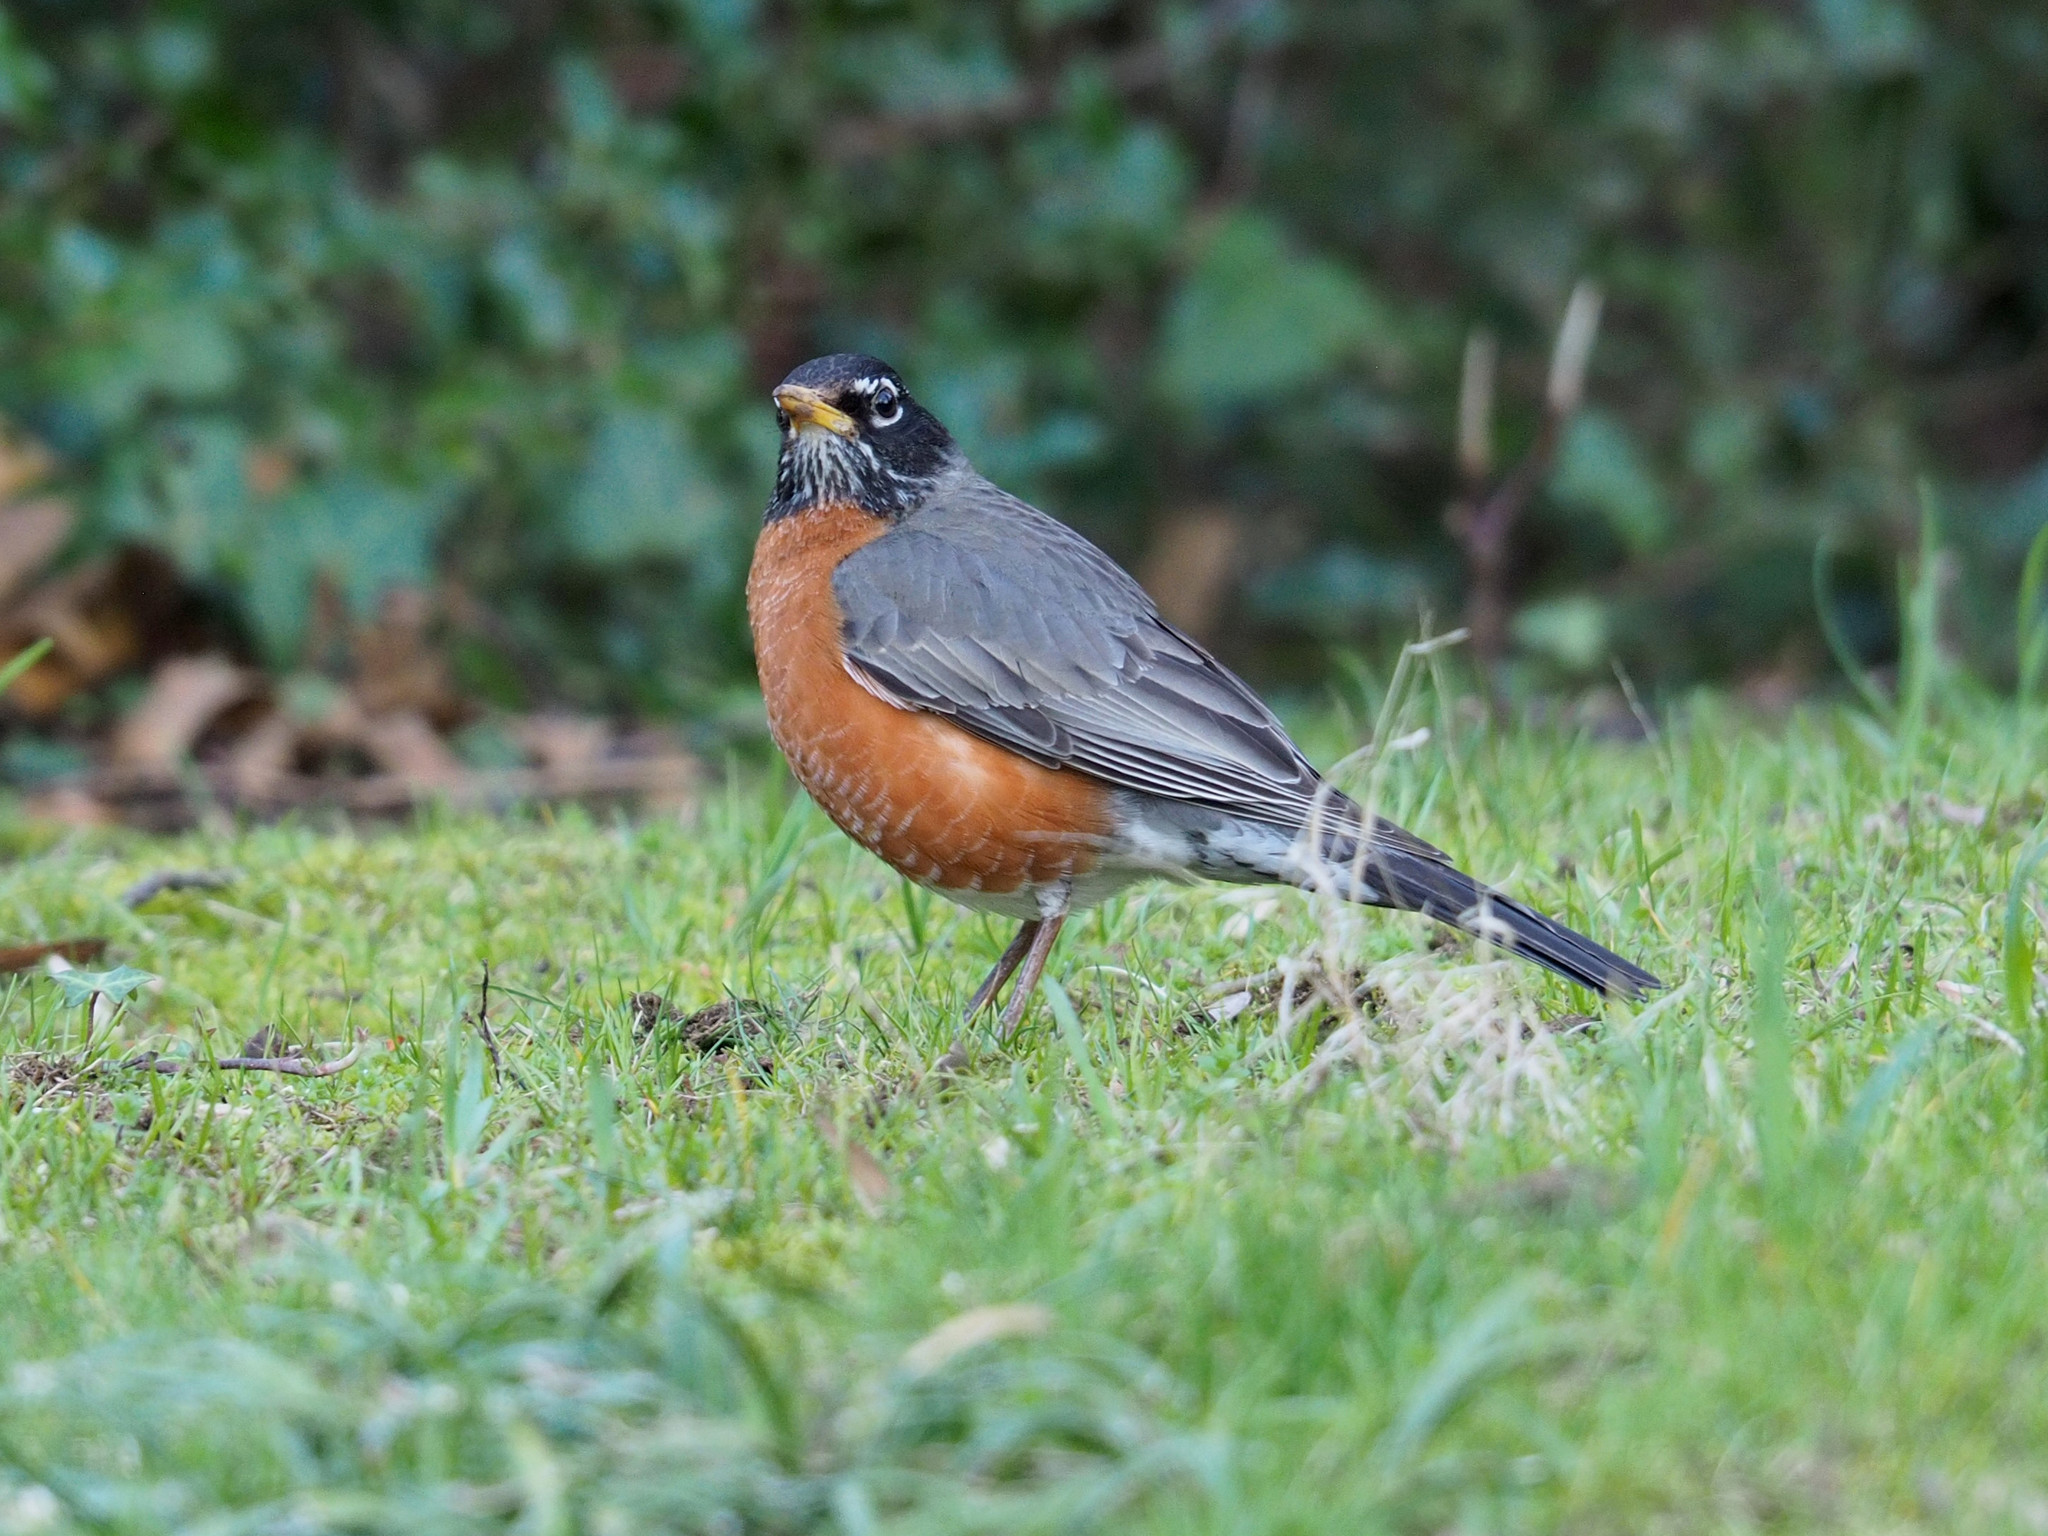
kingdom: Animalia
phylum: Chordata
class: Aves
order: Passeriformes
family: Turdidae
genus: Turdus
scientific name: Turdus migratorius
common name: American robin
